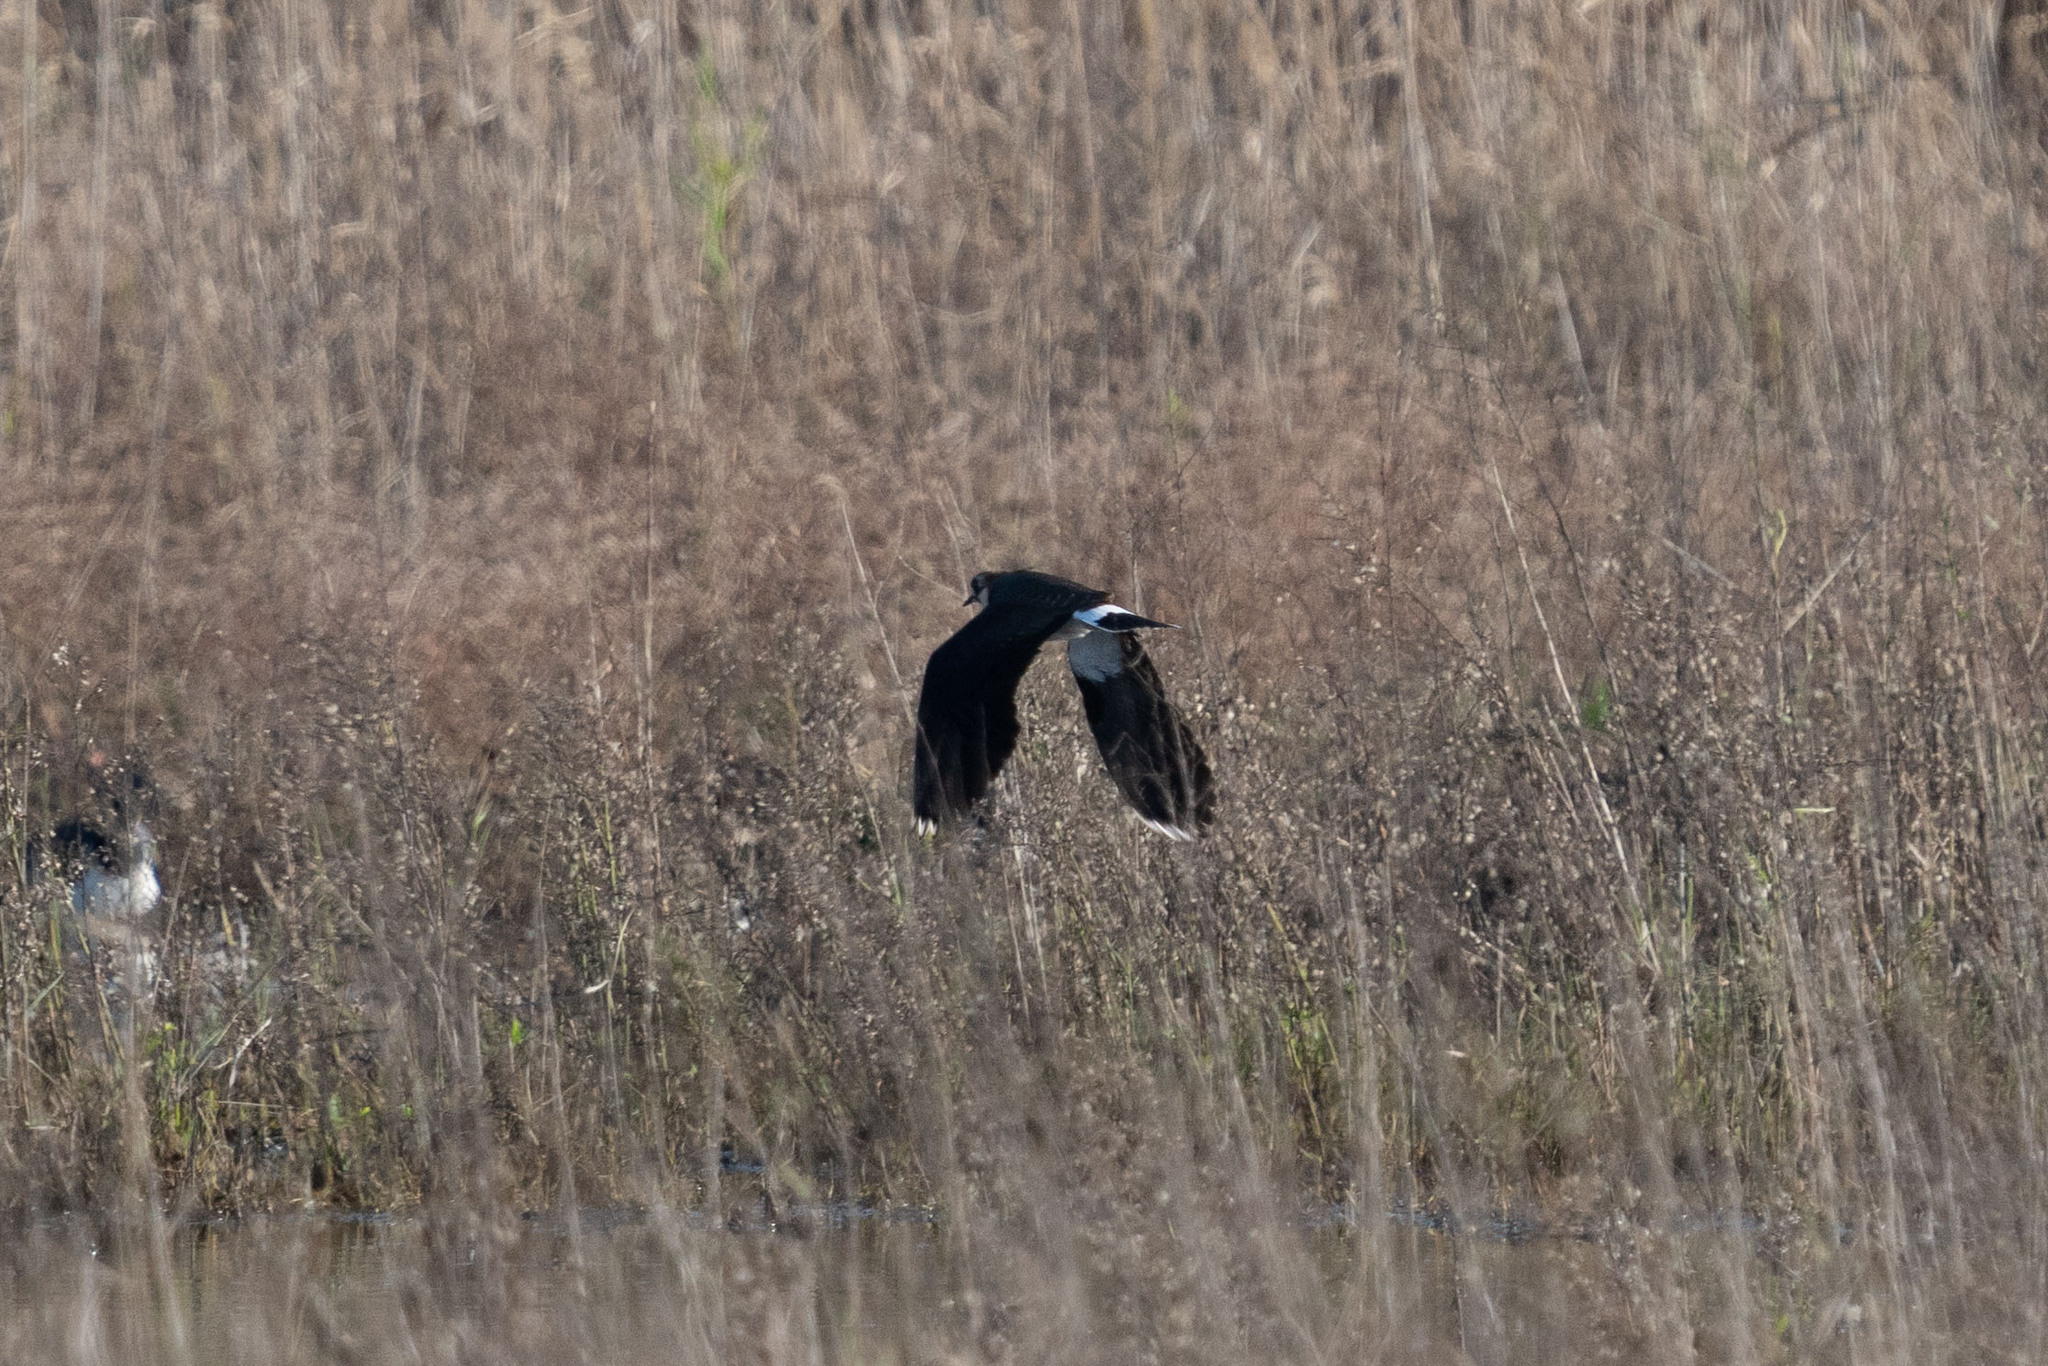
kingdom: Animalia
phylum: Chordata
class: Aves
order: Charadriiformes
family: Charadriidae
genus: Vanellus
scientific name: Vanellus vanellus
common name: Northern lapwing
